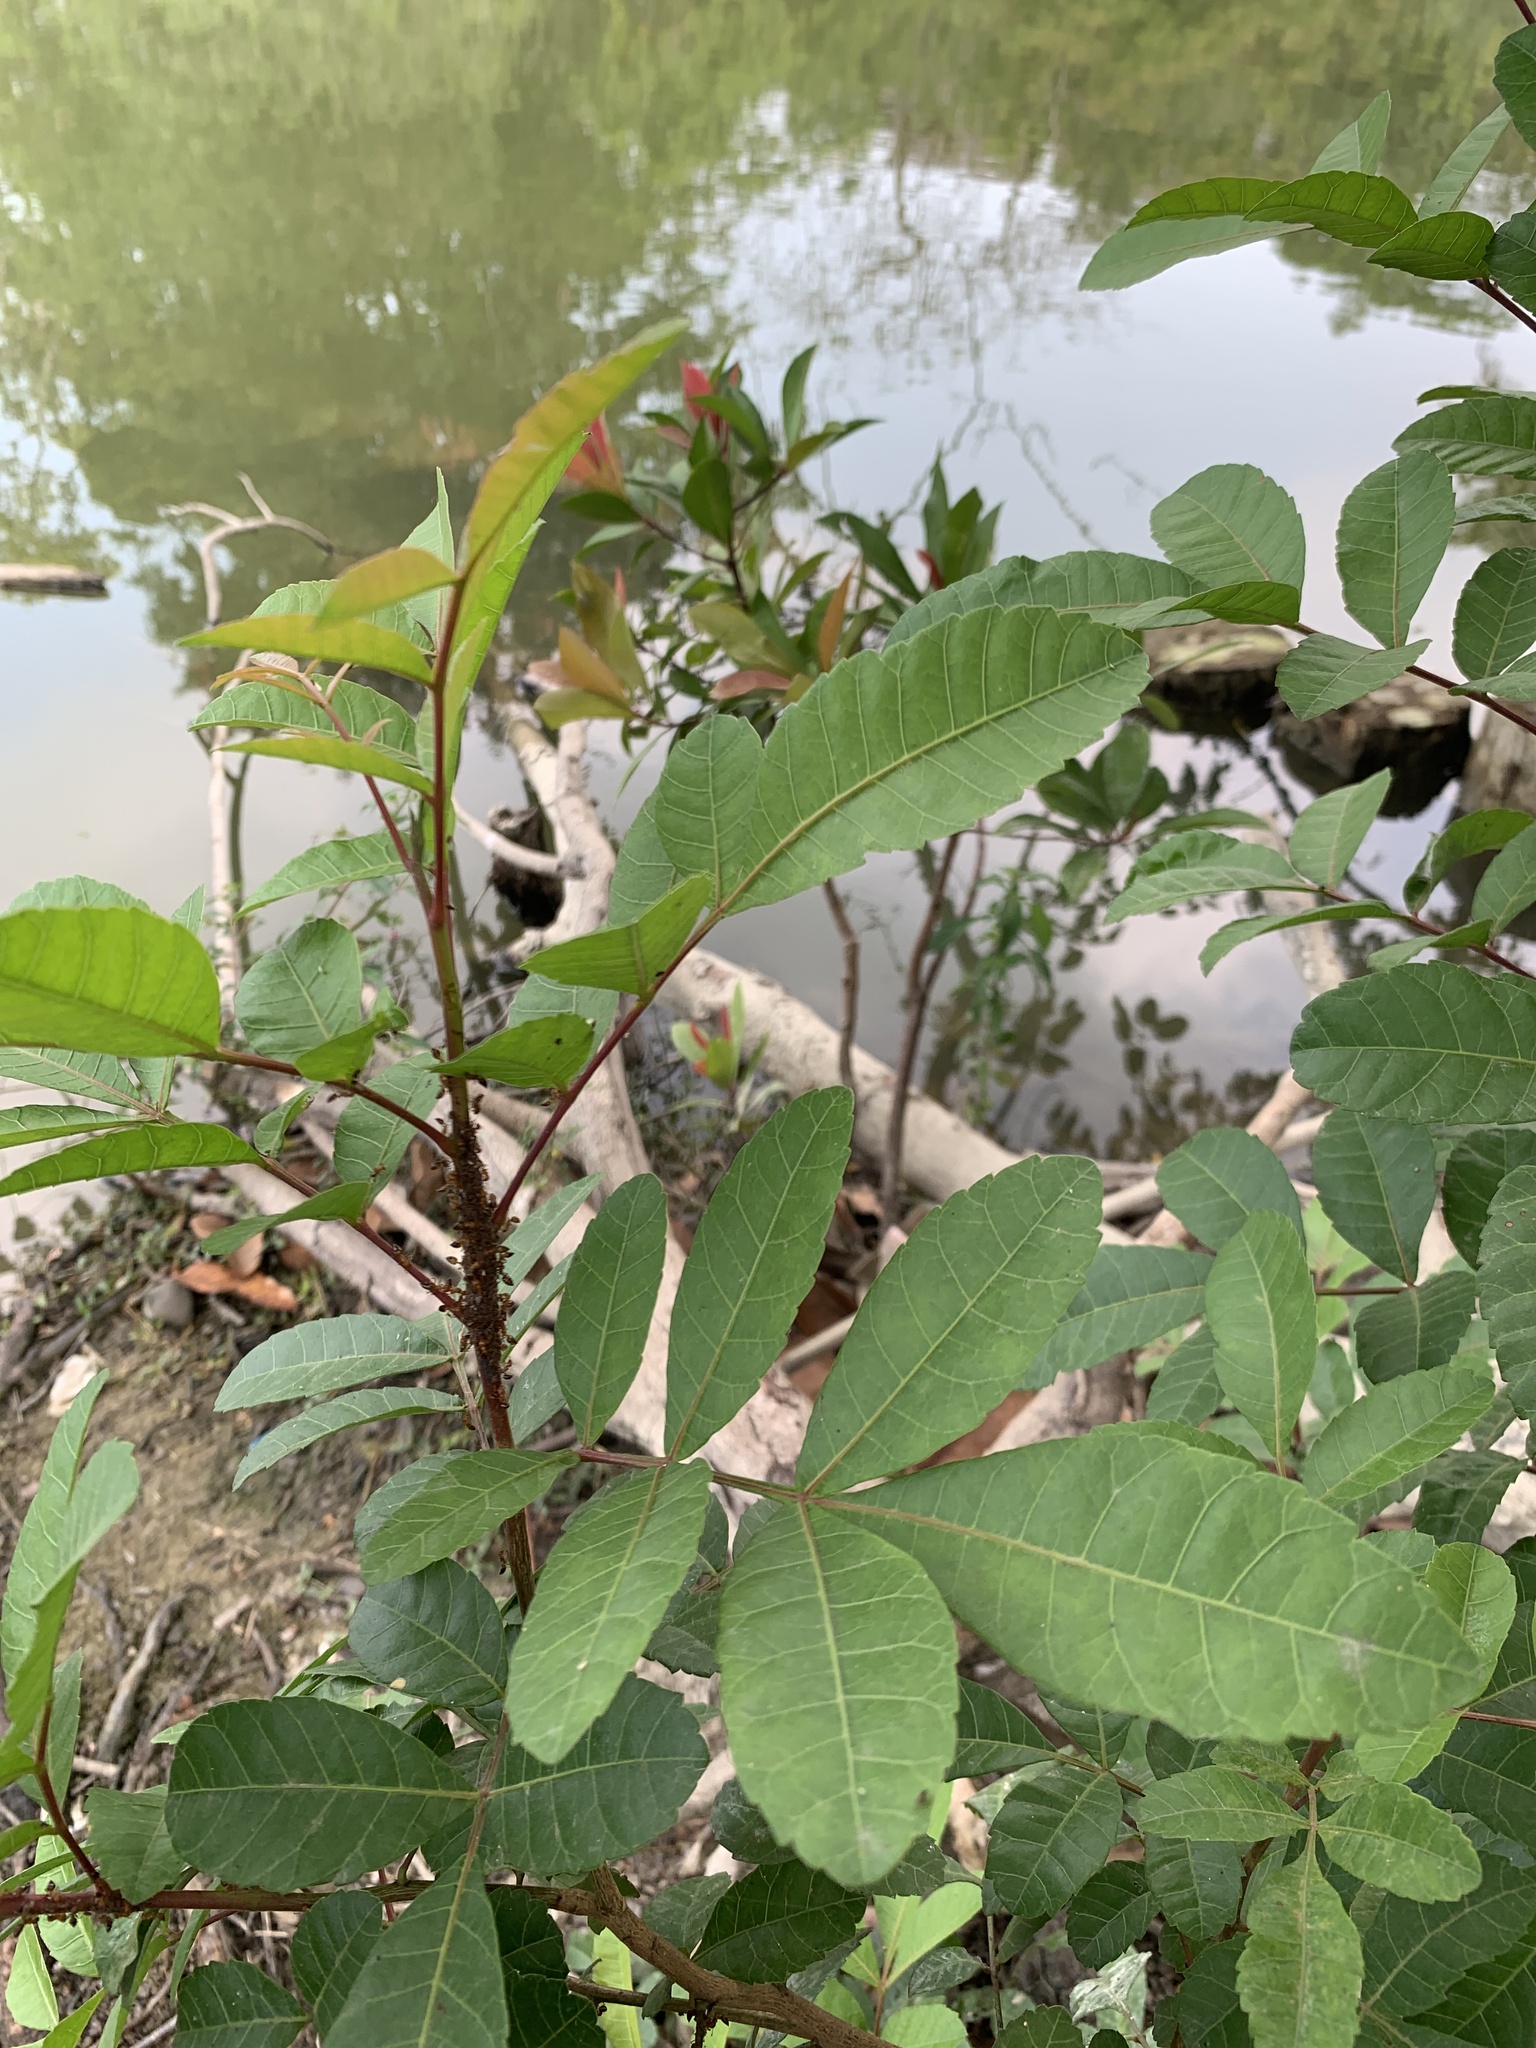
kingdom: Plantae
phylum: Tracheophyta
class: Magnoliopsida
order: Sapindales
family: Anacardiaceae
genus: Schinus
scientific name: Schinus terebinthifolia
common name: Brazilian peppertree
